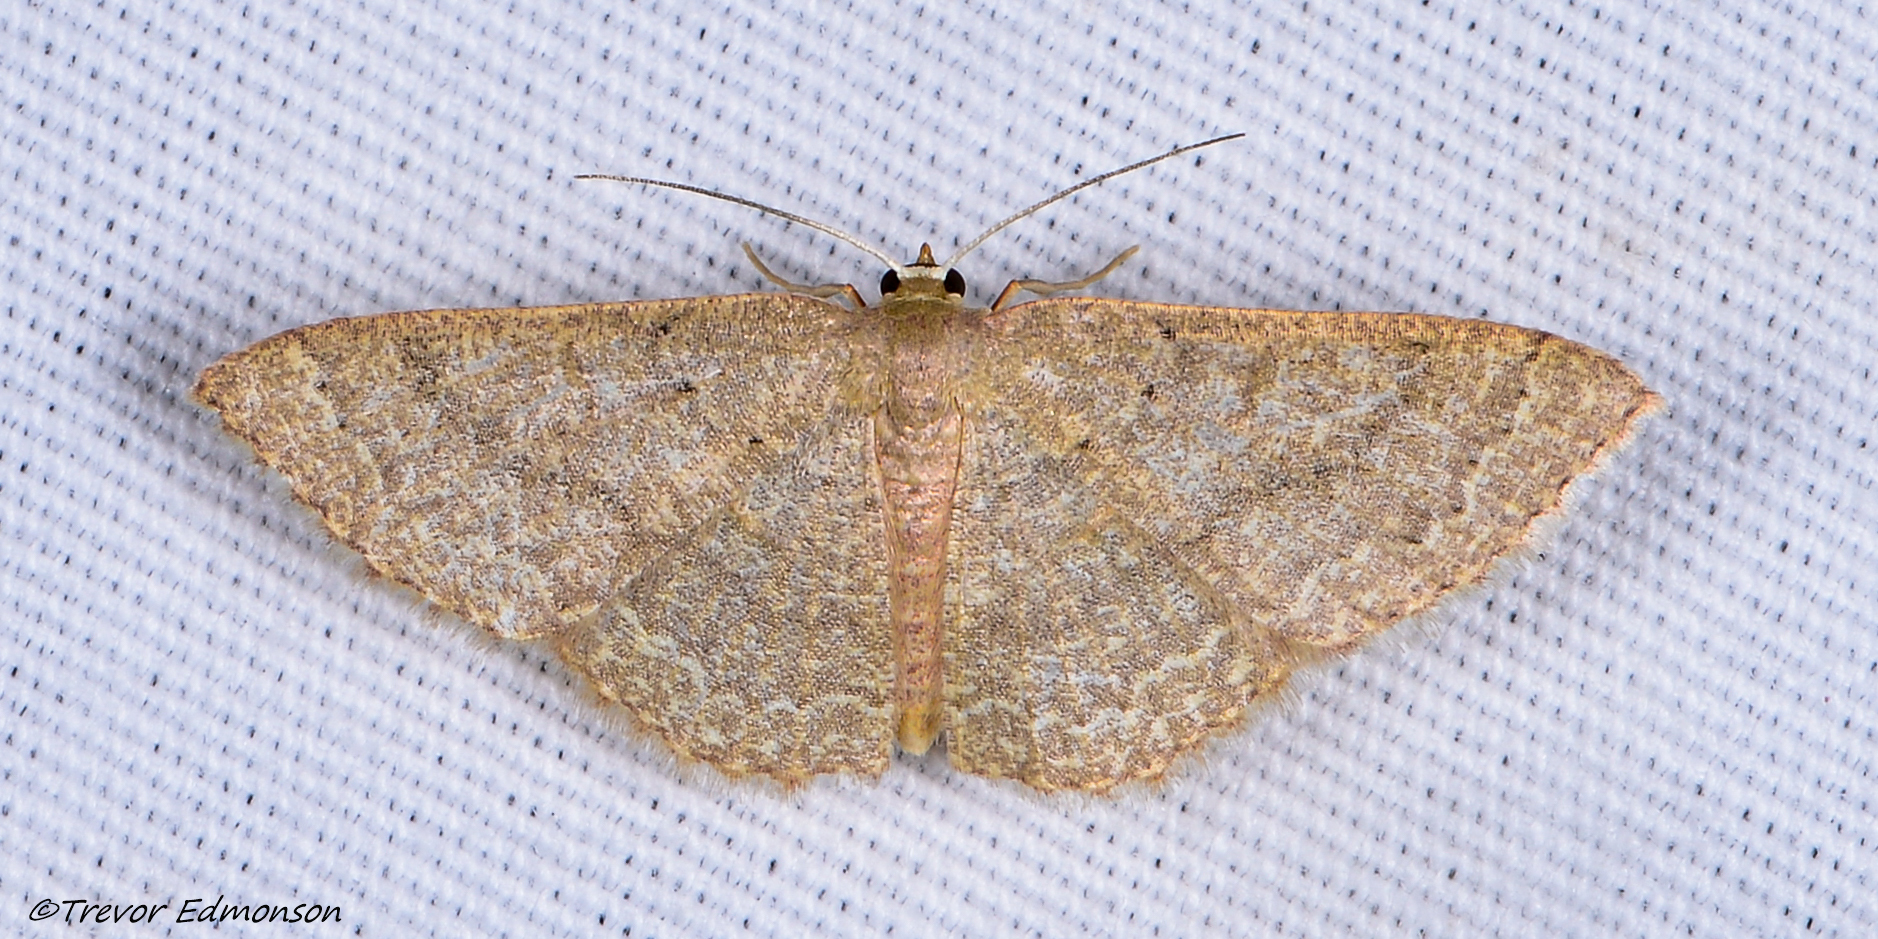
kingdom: Animalia
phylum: Arthropoda
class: Insecta
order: Lepidoptera
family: Geometridae
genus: Pleuroprucha
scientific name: Pleuroprucha insulsaria
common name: Common tan wave
